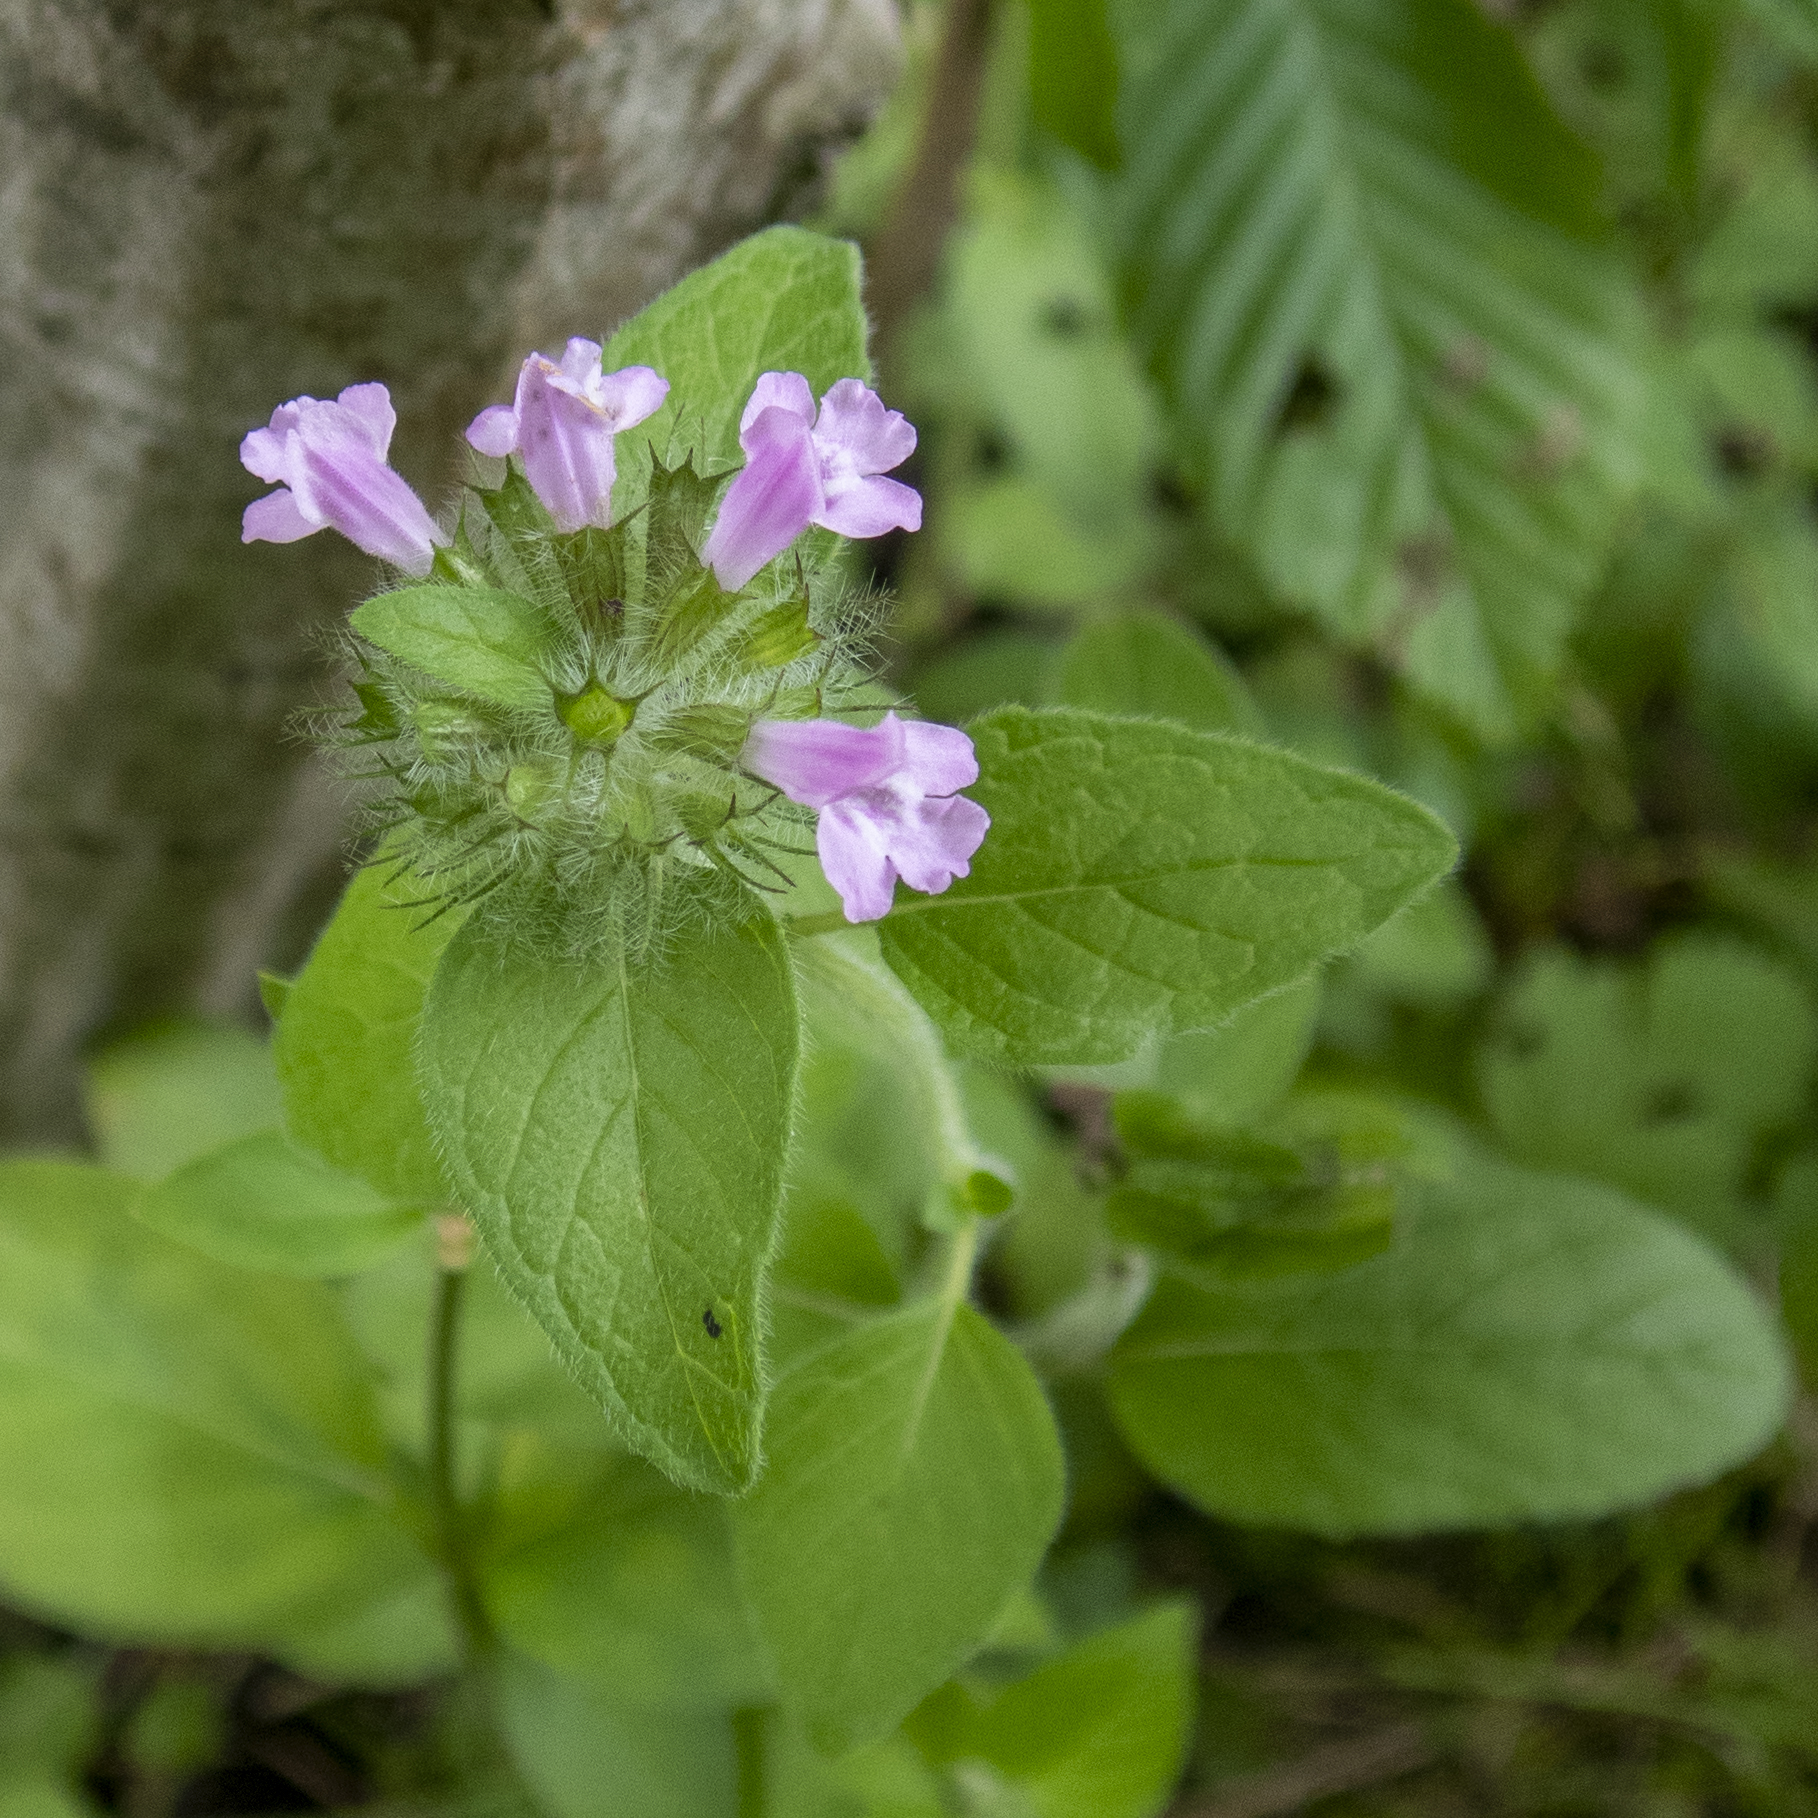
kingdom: Plantae
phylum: Tracheophyta
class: Magnoliopsida
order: Lamiales
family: Lamiaceae
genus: Clinopodium
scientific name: Clinopodium vulgare
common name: Wild basil
